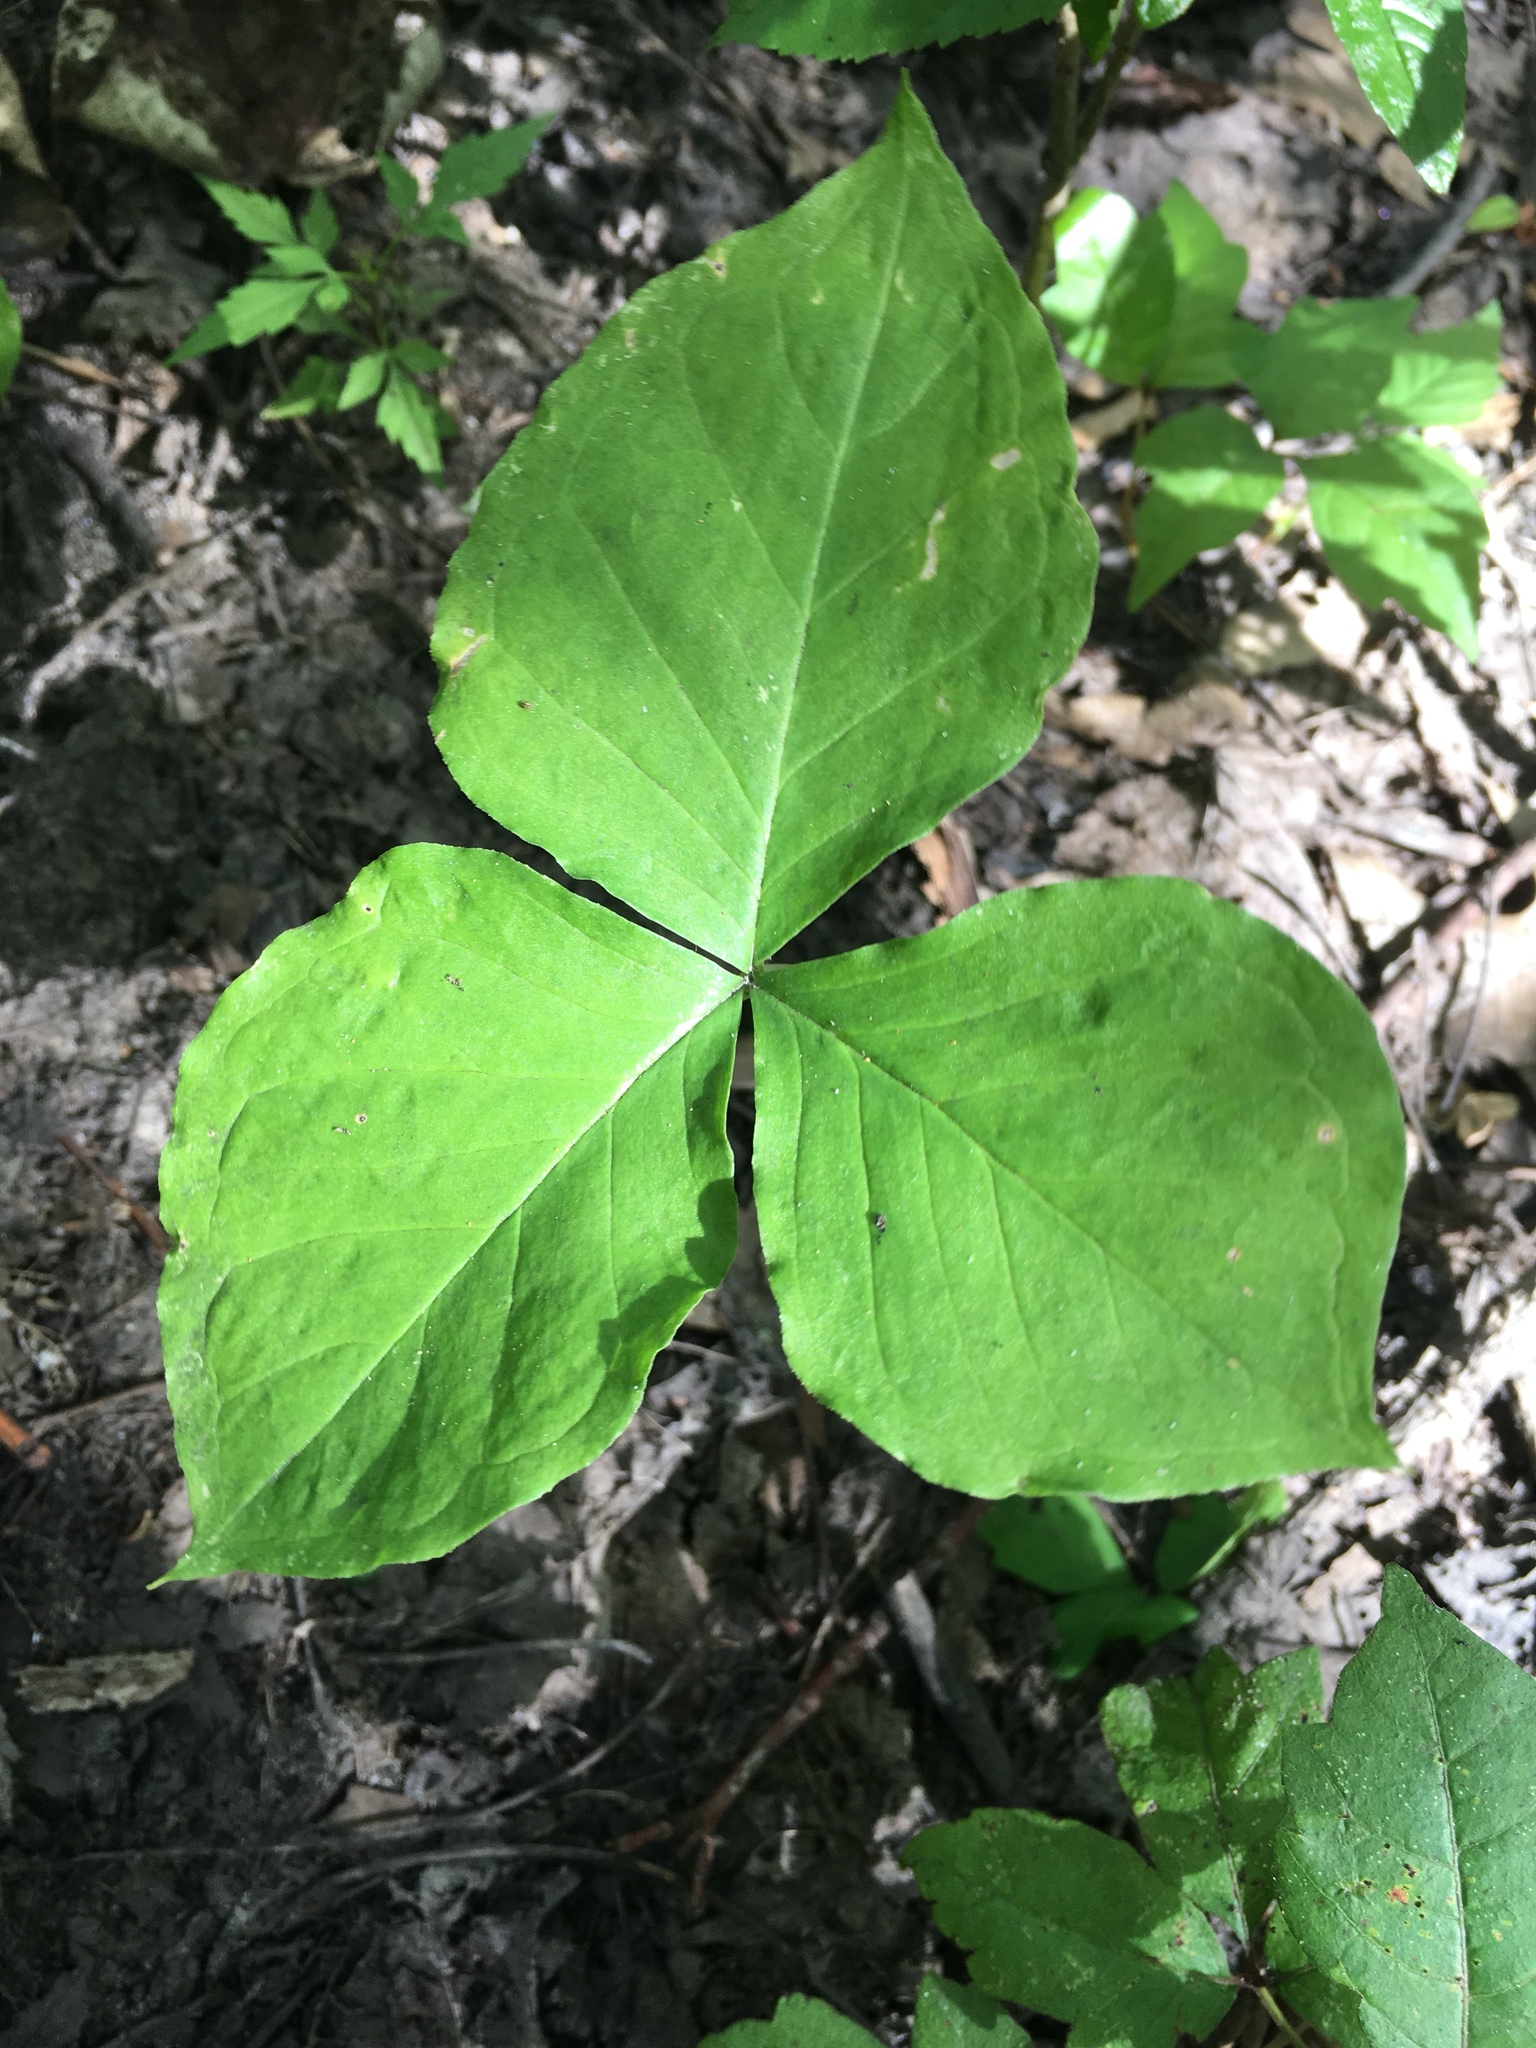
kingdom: Plantae
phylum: Tracheophyta
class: Liliopsida
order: Alismatales
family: Araceae
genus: Arisaema
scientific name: Arisaema triphyllum
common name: Jack-in-the-pulpit
